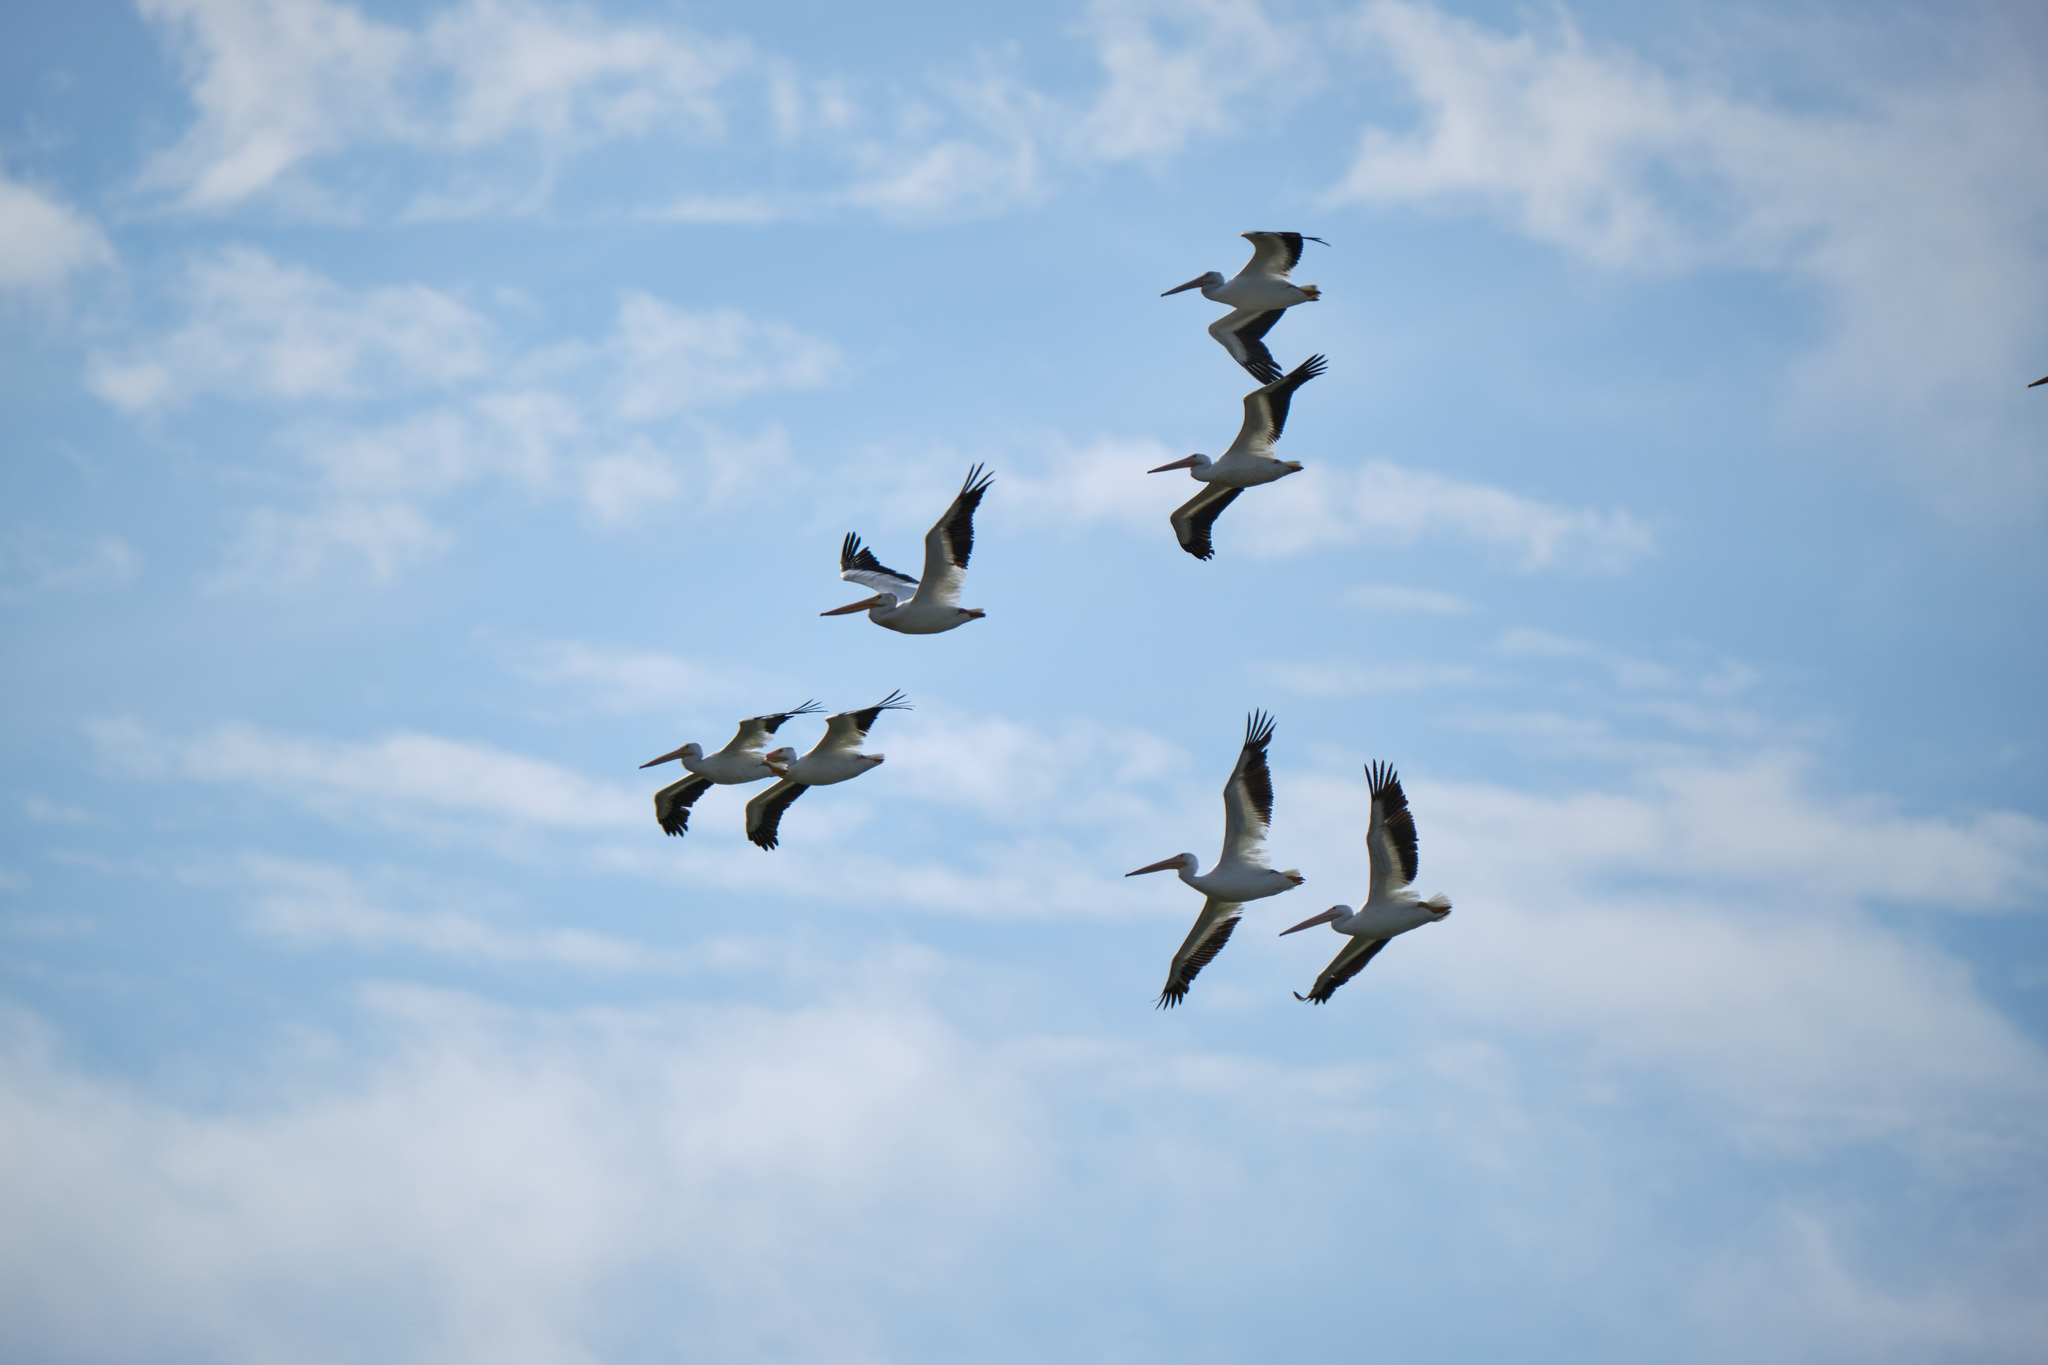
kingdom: Animalia
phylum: Chordata
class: Aves
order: Pelecaniformes
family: Pelecanidae
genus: Pelecanus
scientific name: Pelecanus erythrorhynchos
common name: American white pelican
